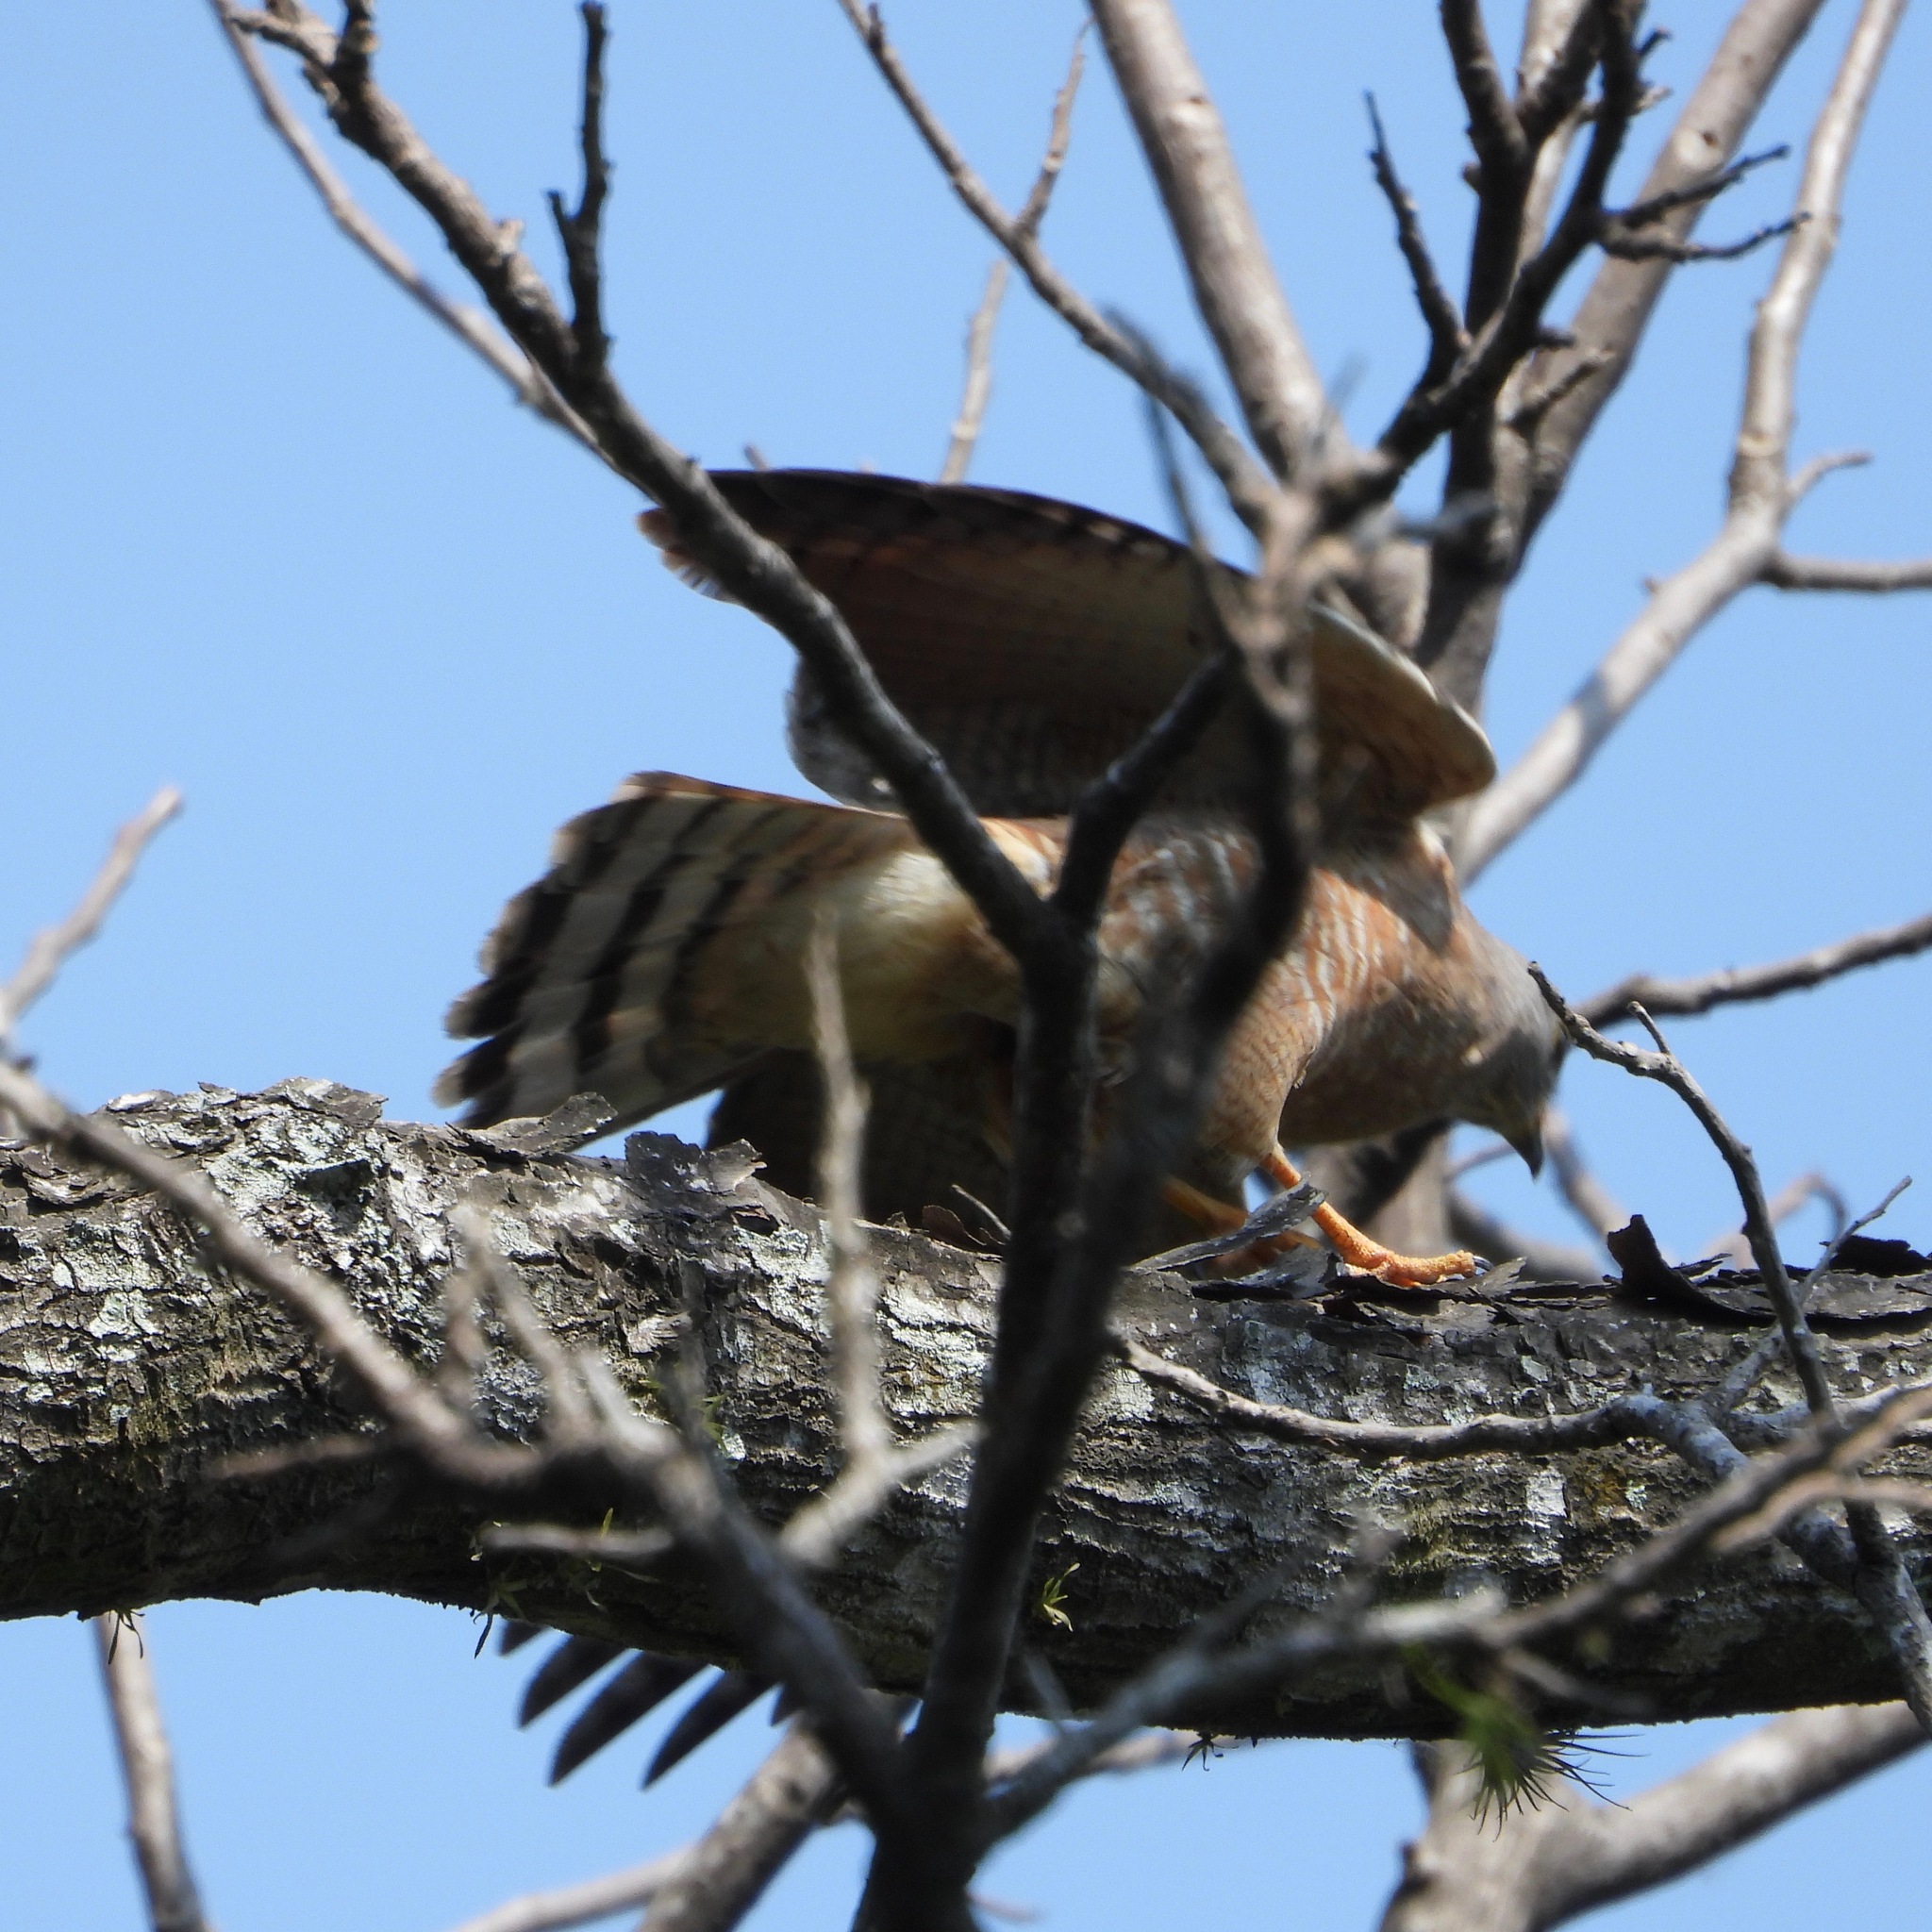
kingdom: Animalia
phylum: Chordata
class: Aves
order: Accipitriformes
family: Accipitridae
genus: Rupornis
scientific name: Rupornis magnirostris
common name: Roadside hawk
